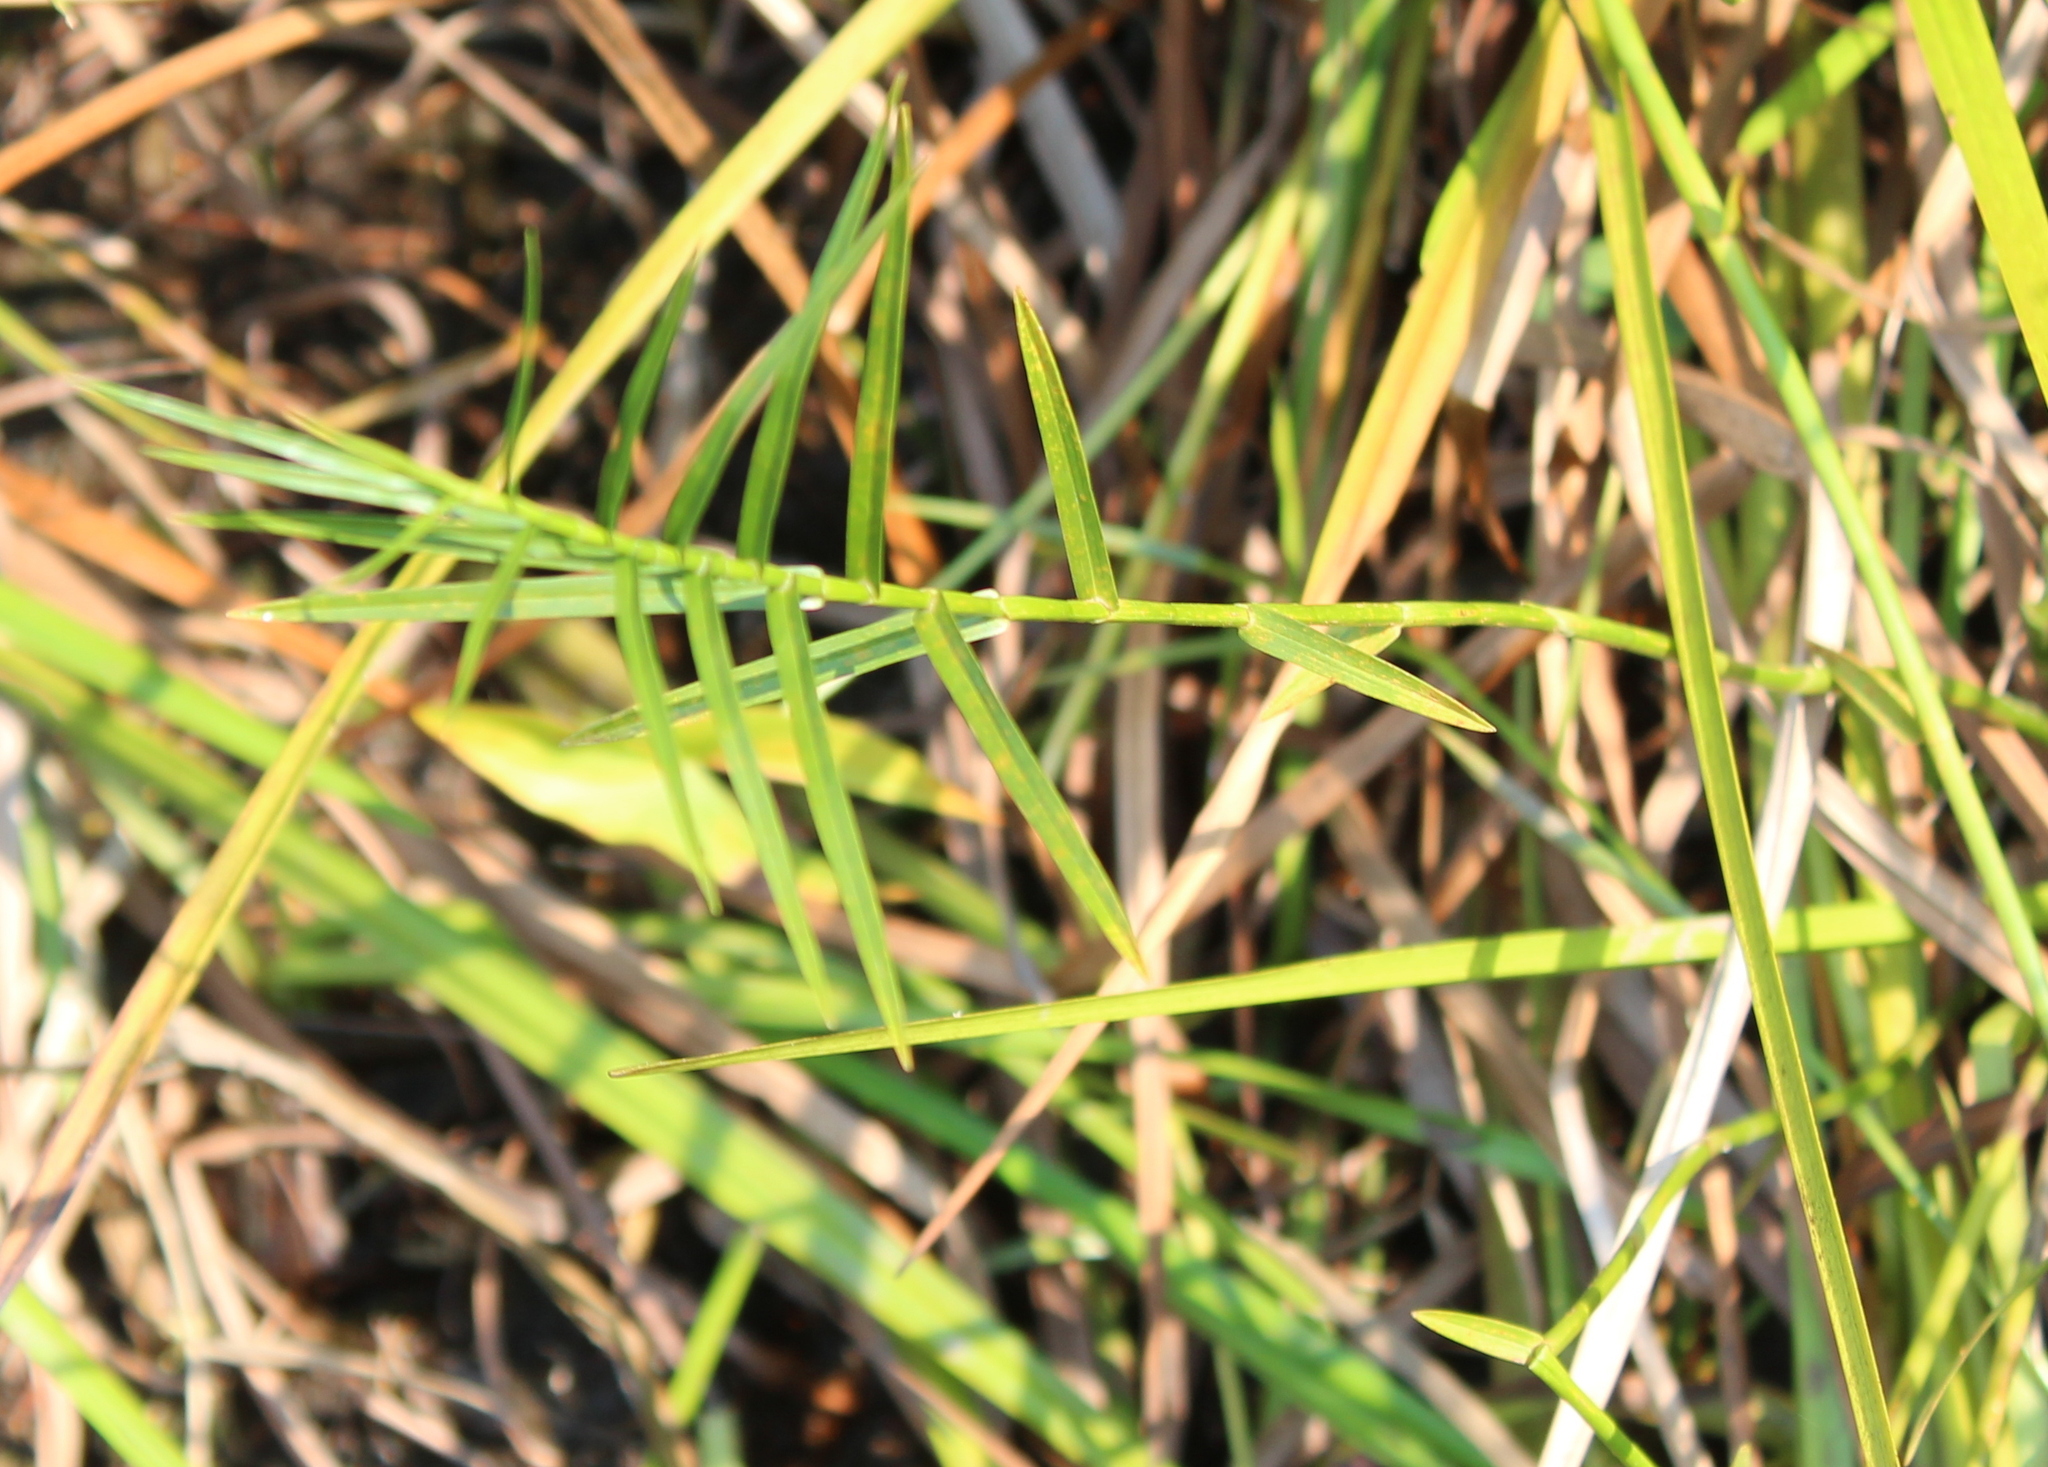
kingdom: Plantae
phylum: Tracheophyta
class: Liliopsida
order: Poales
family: Cyperaceae
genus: Dulichium
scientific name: Dulichium arundinaceum
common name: Three-way sedge
